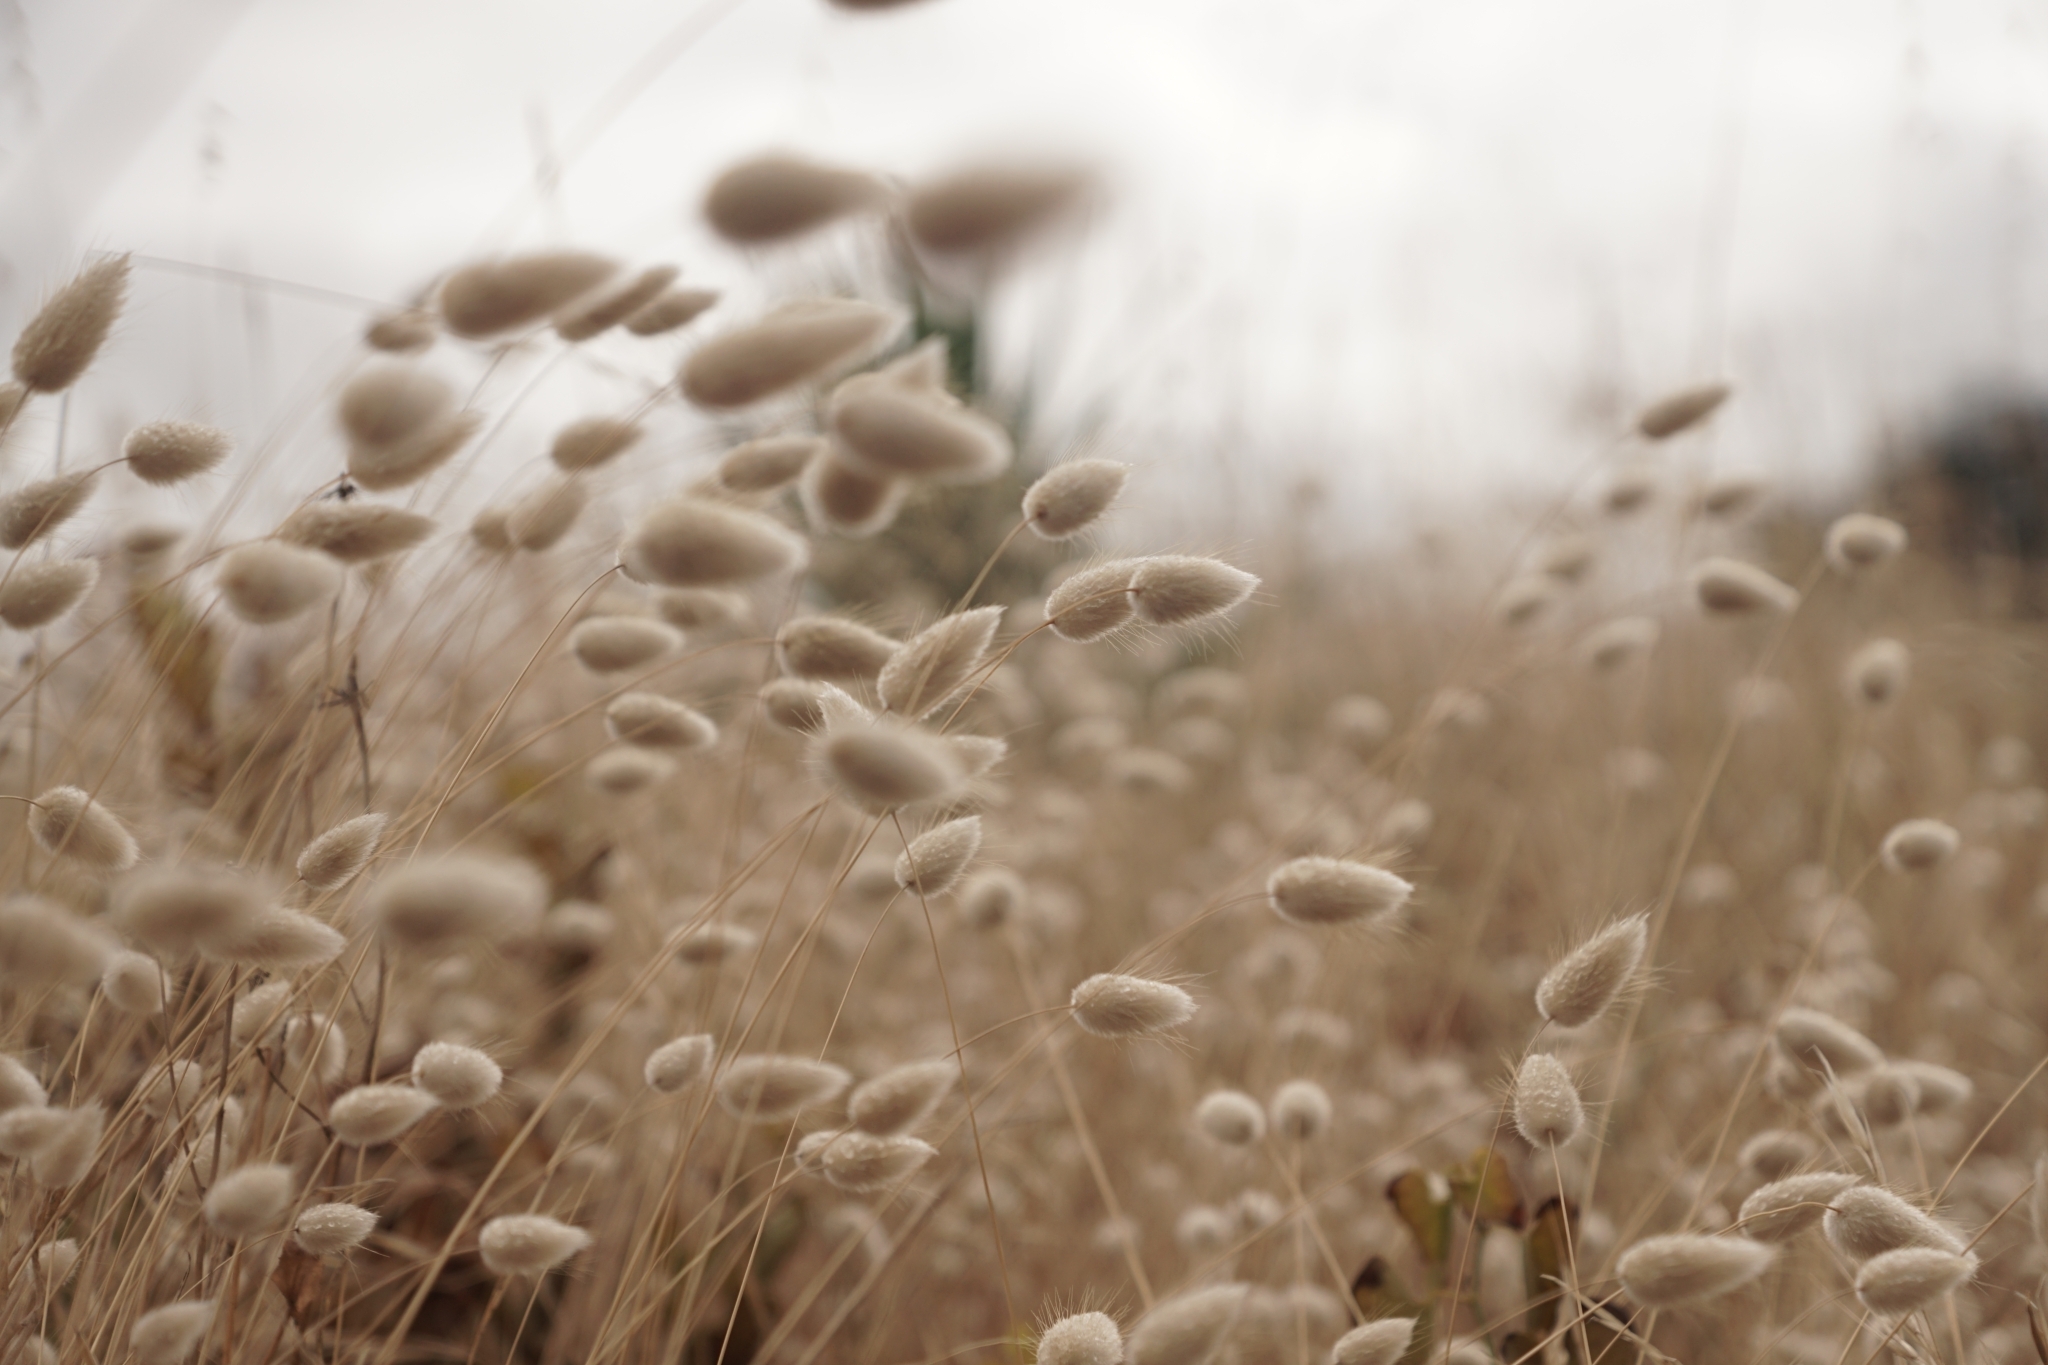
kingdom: Plantae
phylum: Tracheophyta
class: Liliopsida
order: Poales
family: Poaceae
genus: Lagurus
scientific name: Lagurus ovatus
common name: Hare's-tail
